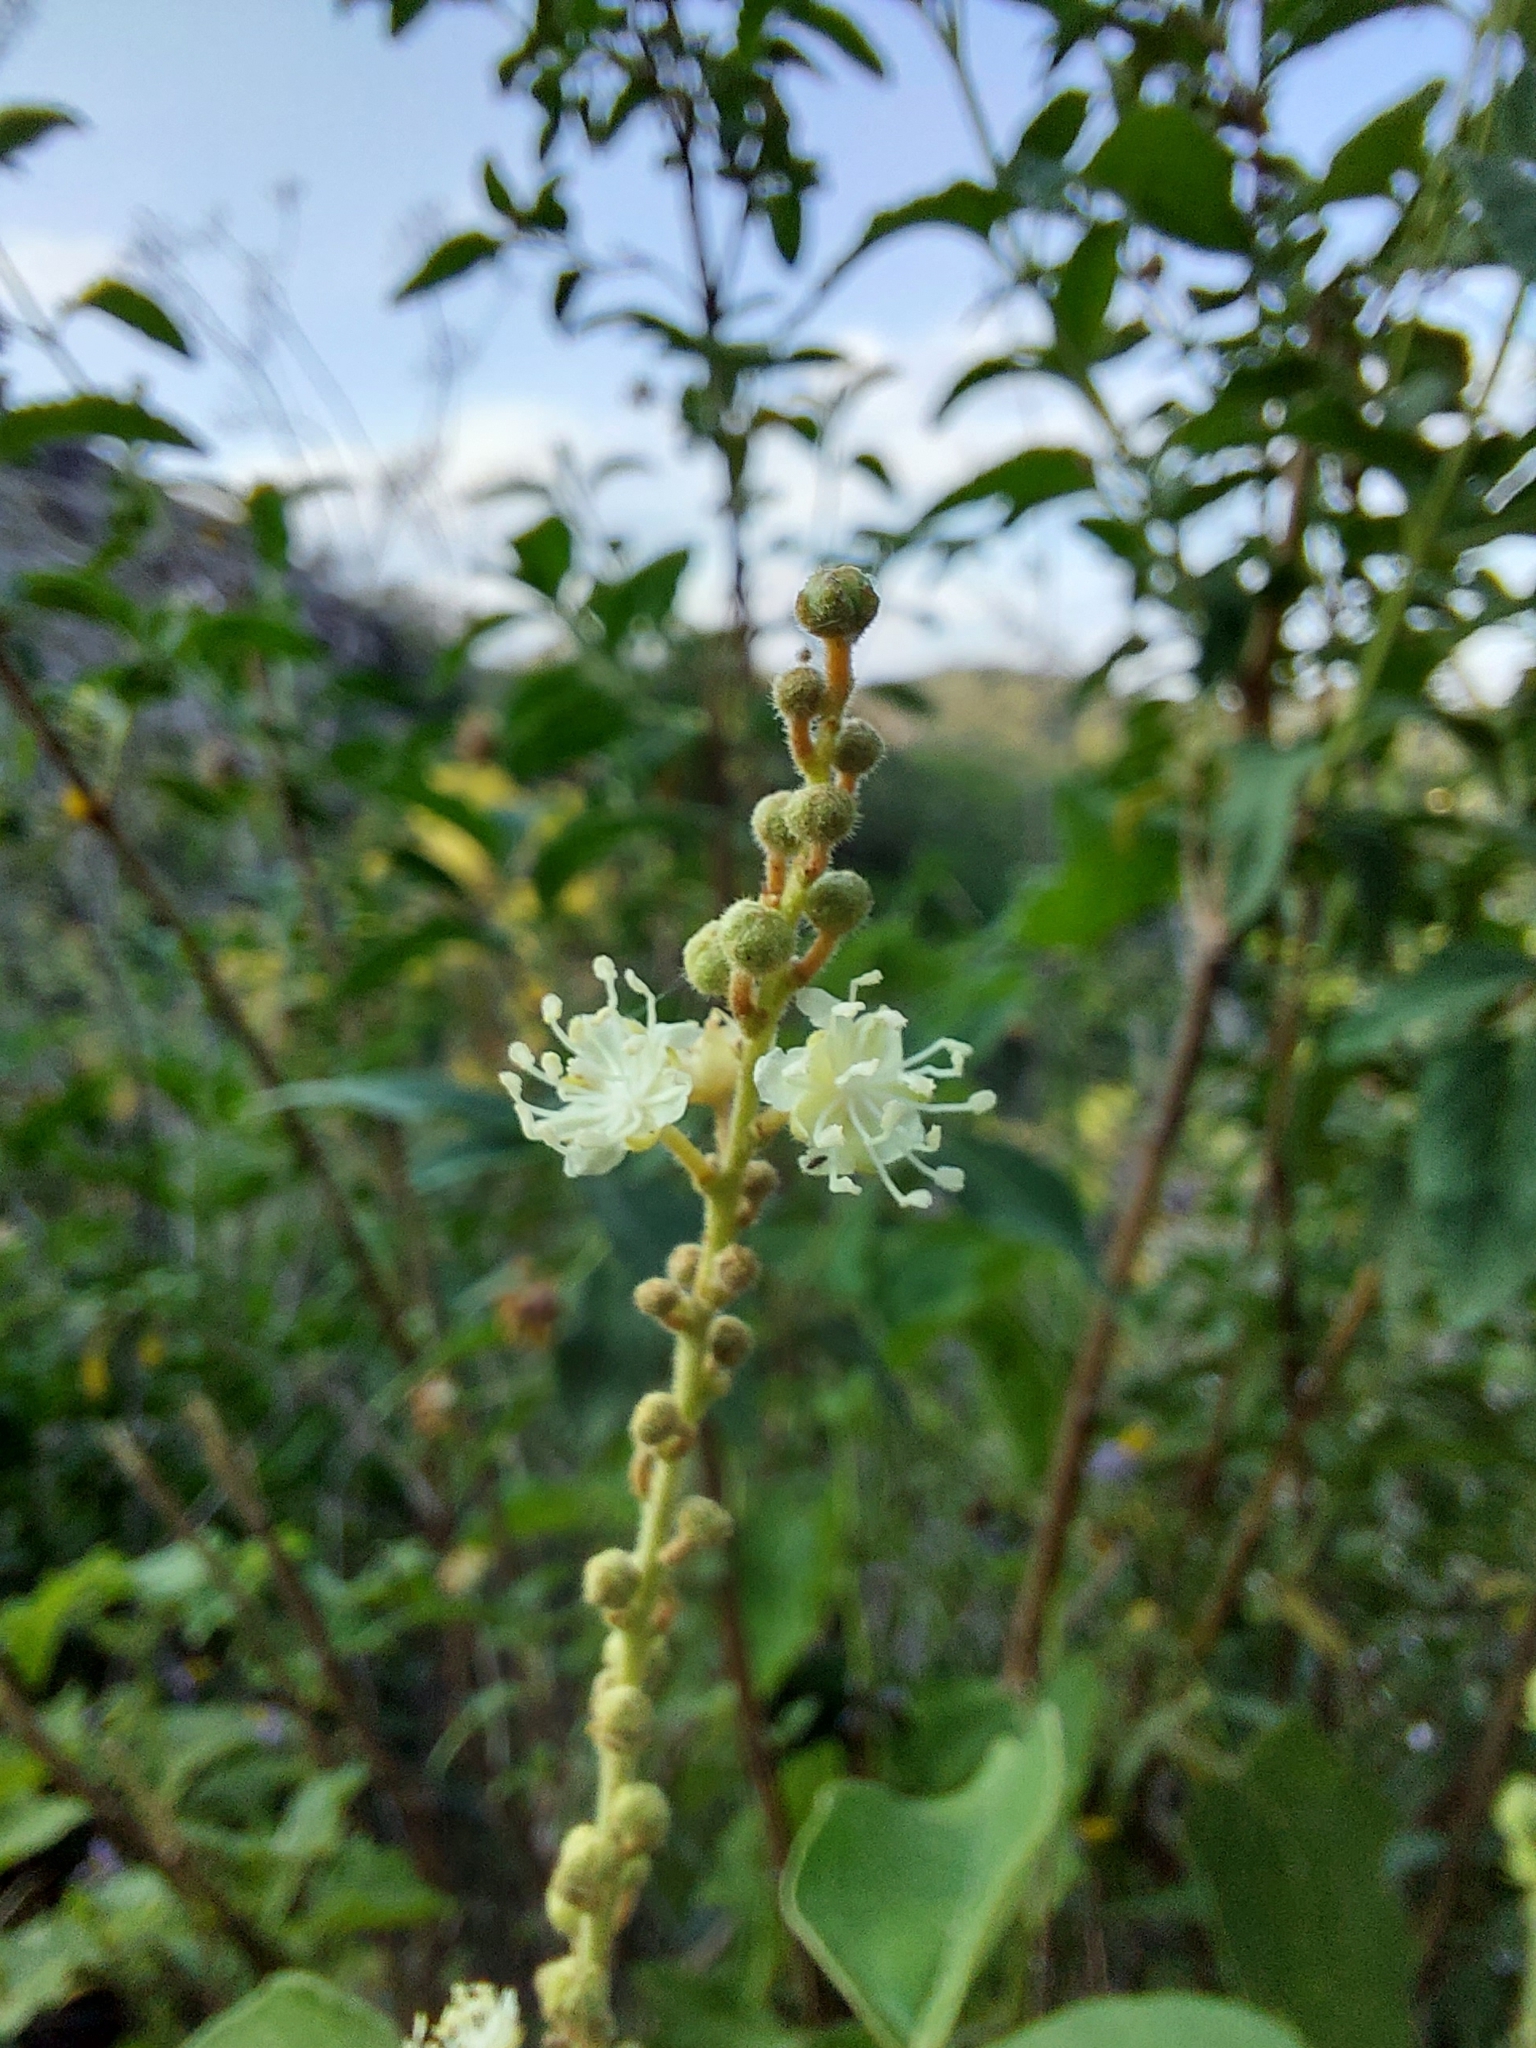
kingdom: Plantae
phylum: Tracheophyta
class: Magnoliopsida
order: Malpighiales
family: Euphorbiaceae
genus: Croton
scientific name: Croton lachnostachyus
